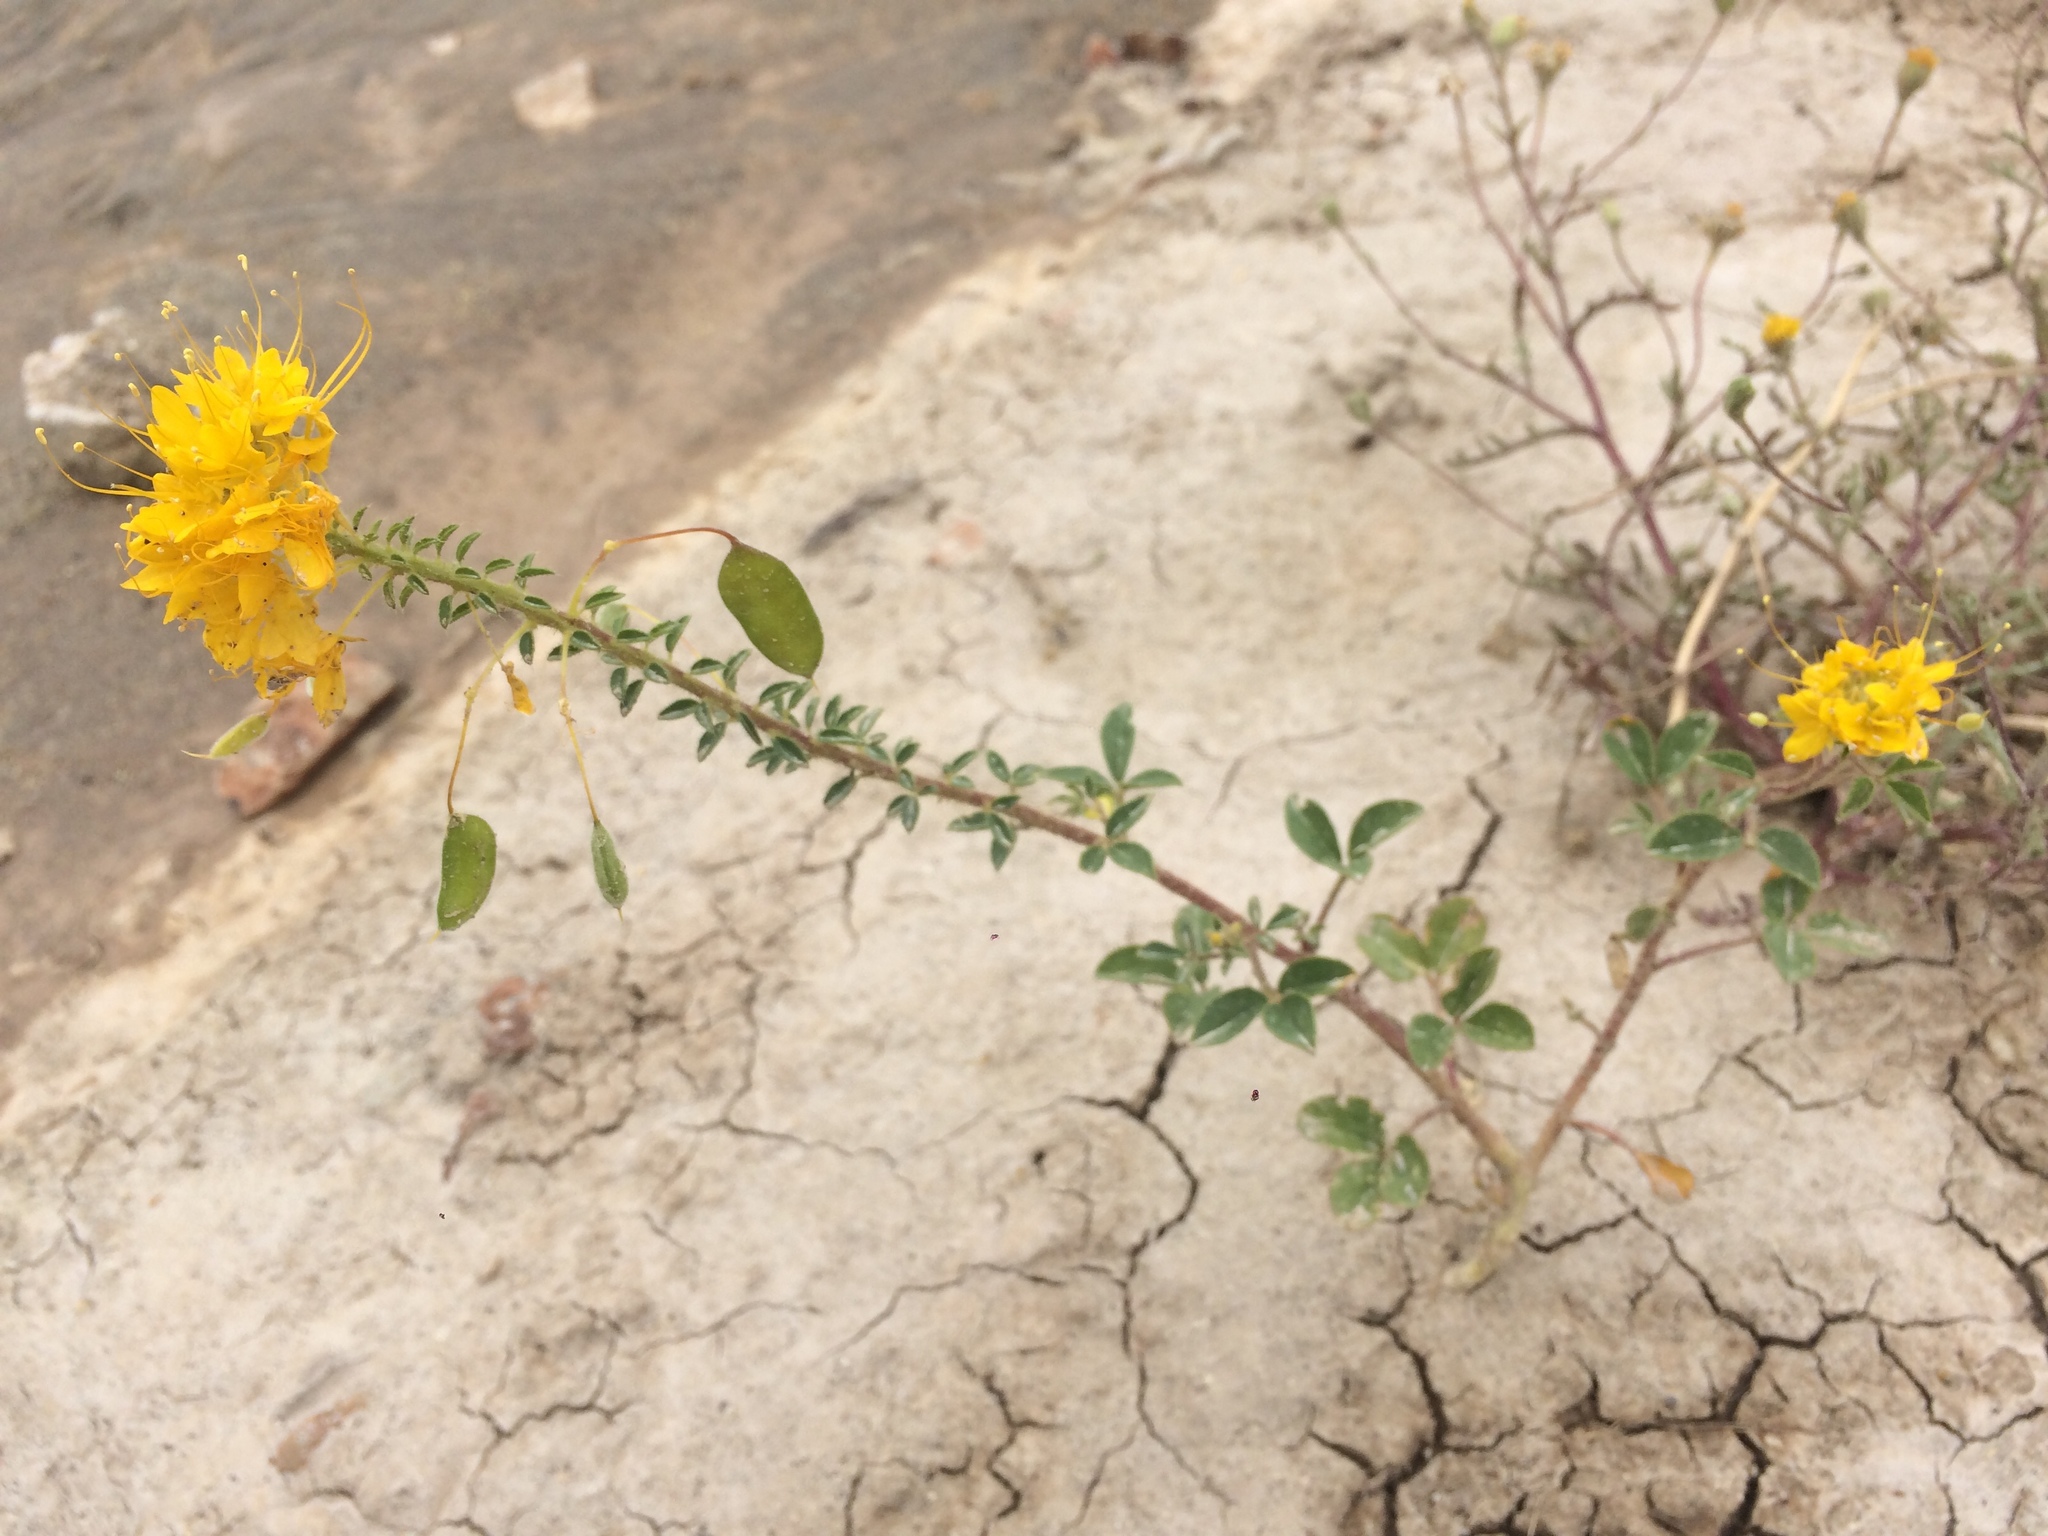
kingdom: Plantae
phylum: Tracheophyta
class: Magnoliopsida
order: Brassicales
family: Cleomaceae
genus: Cleomella
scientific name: Cleomella platycarpa
